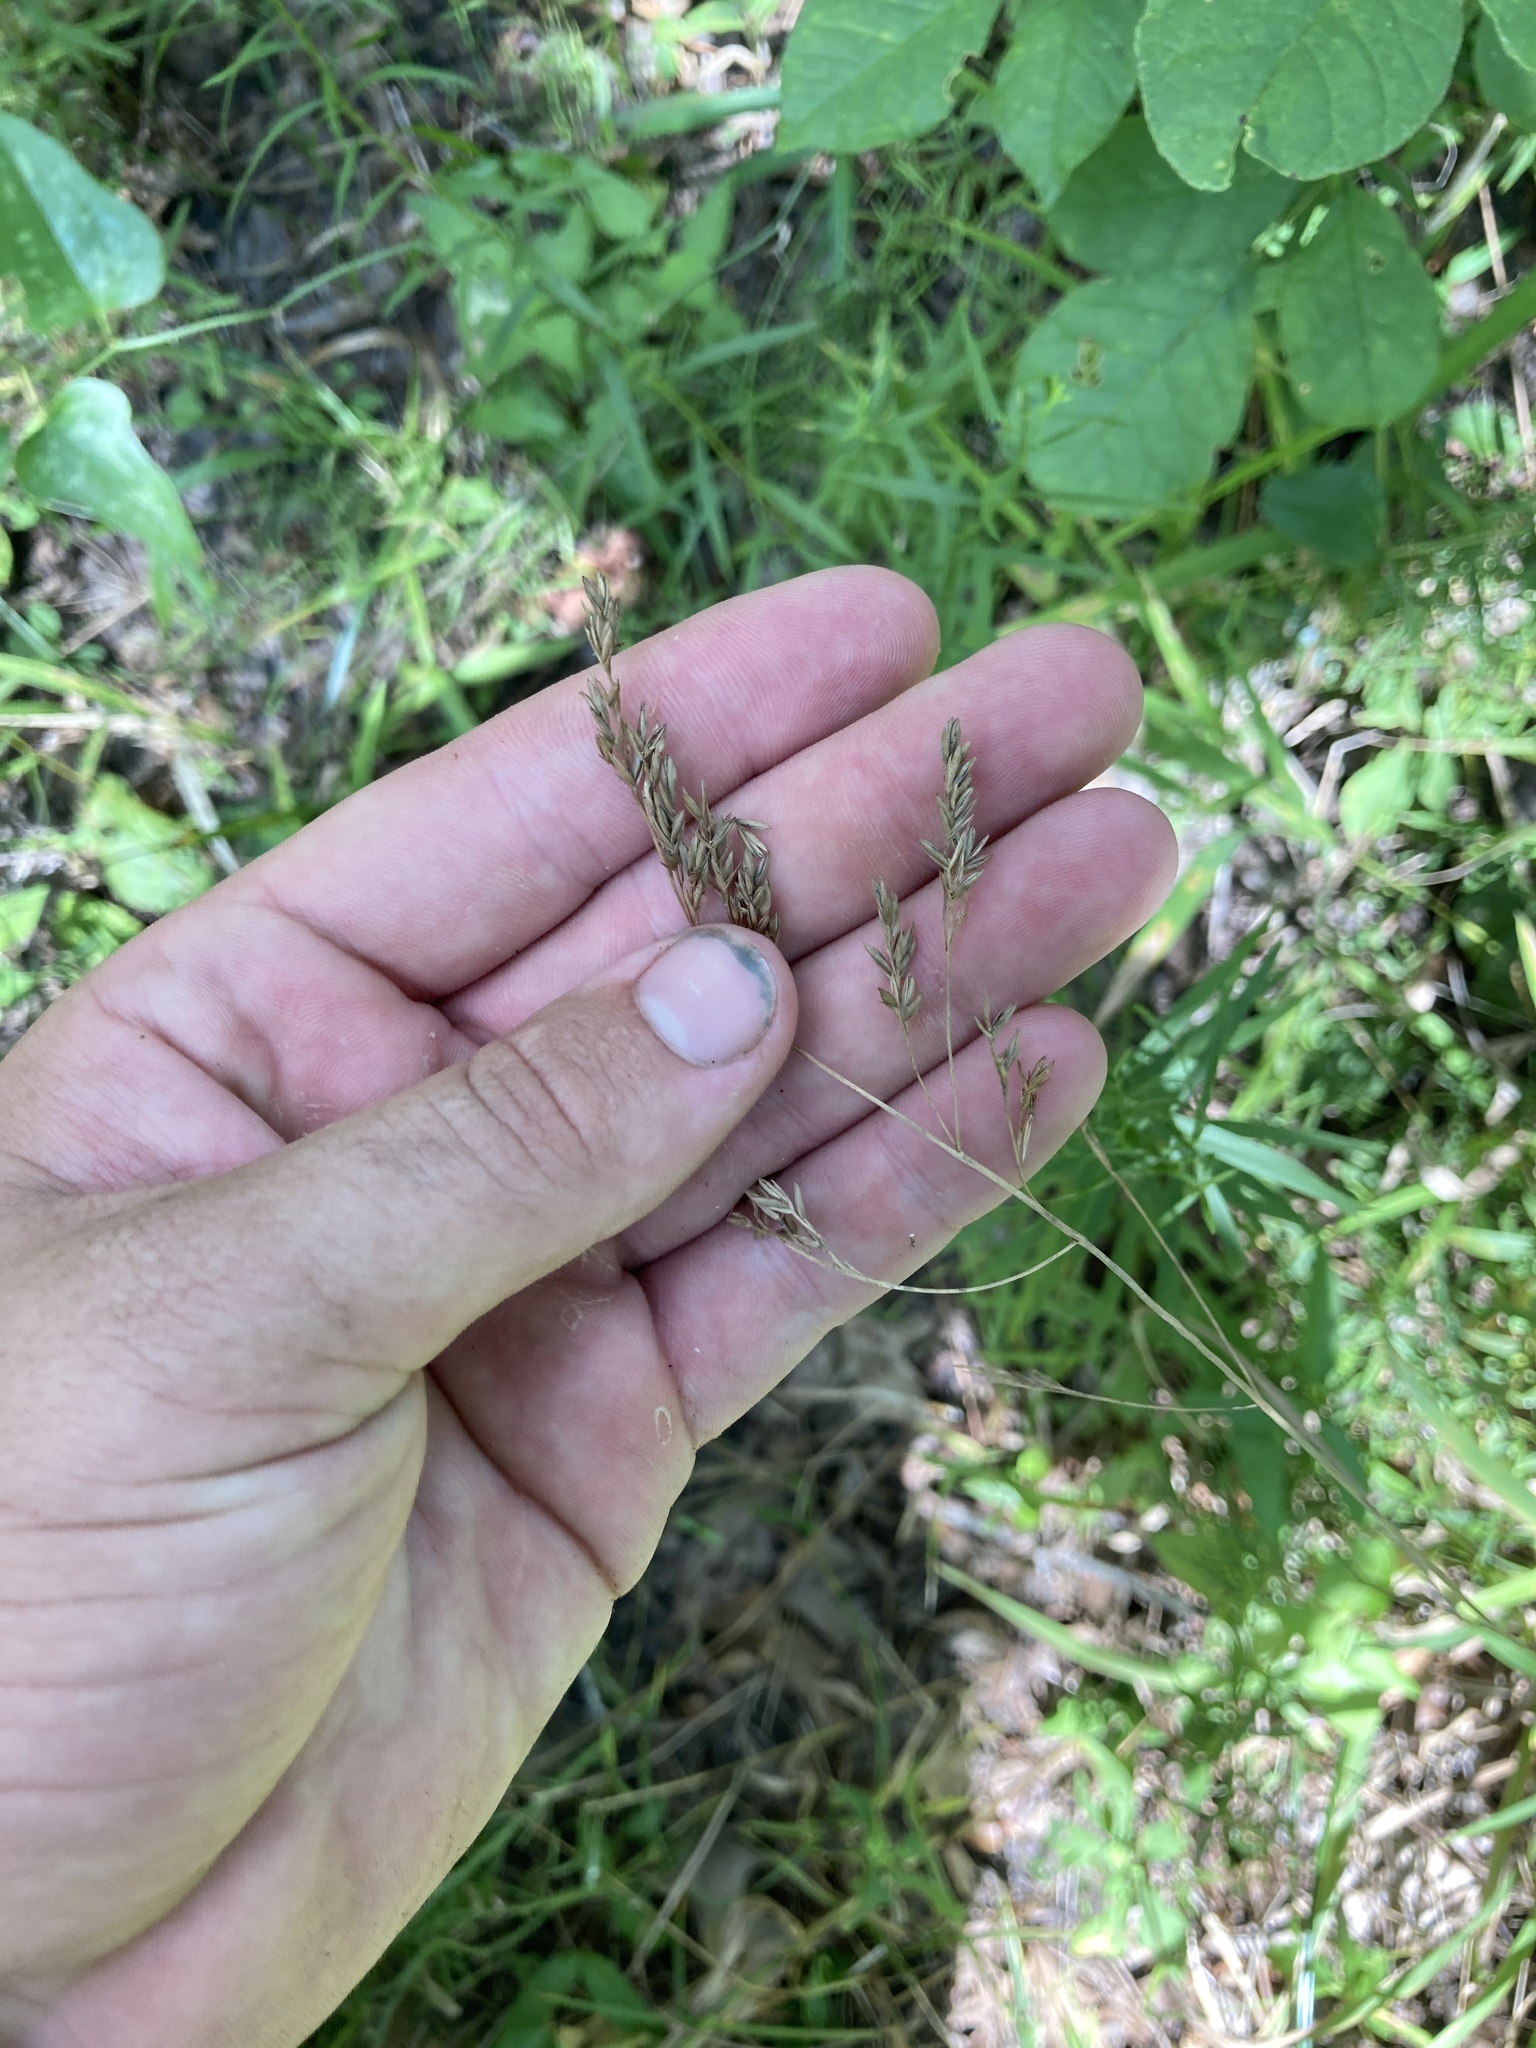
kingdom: Plantae
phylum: Tracheophyta
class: Liliopsida
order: Poales
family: Poaceae
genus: Festuca
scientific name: Festuca paradoxa
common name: Cluster fescue
